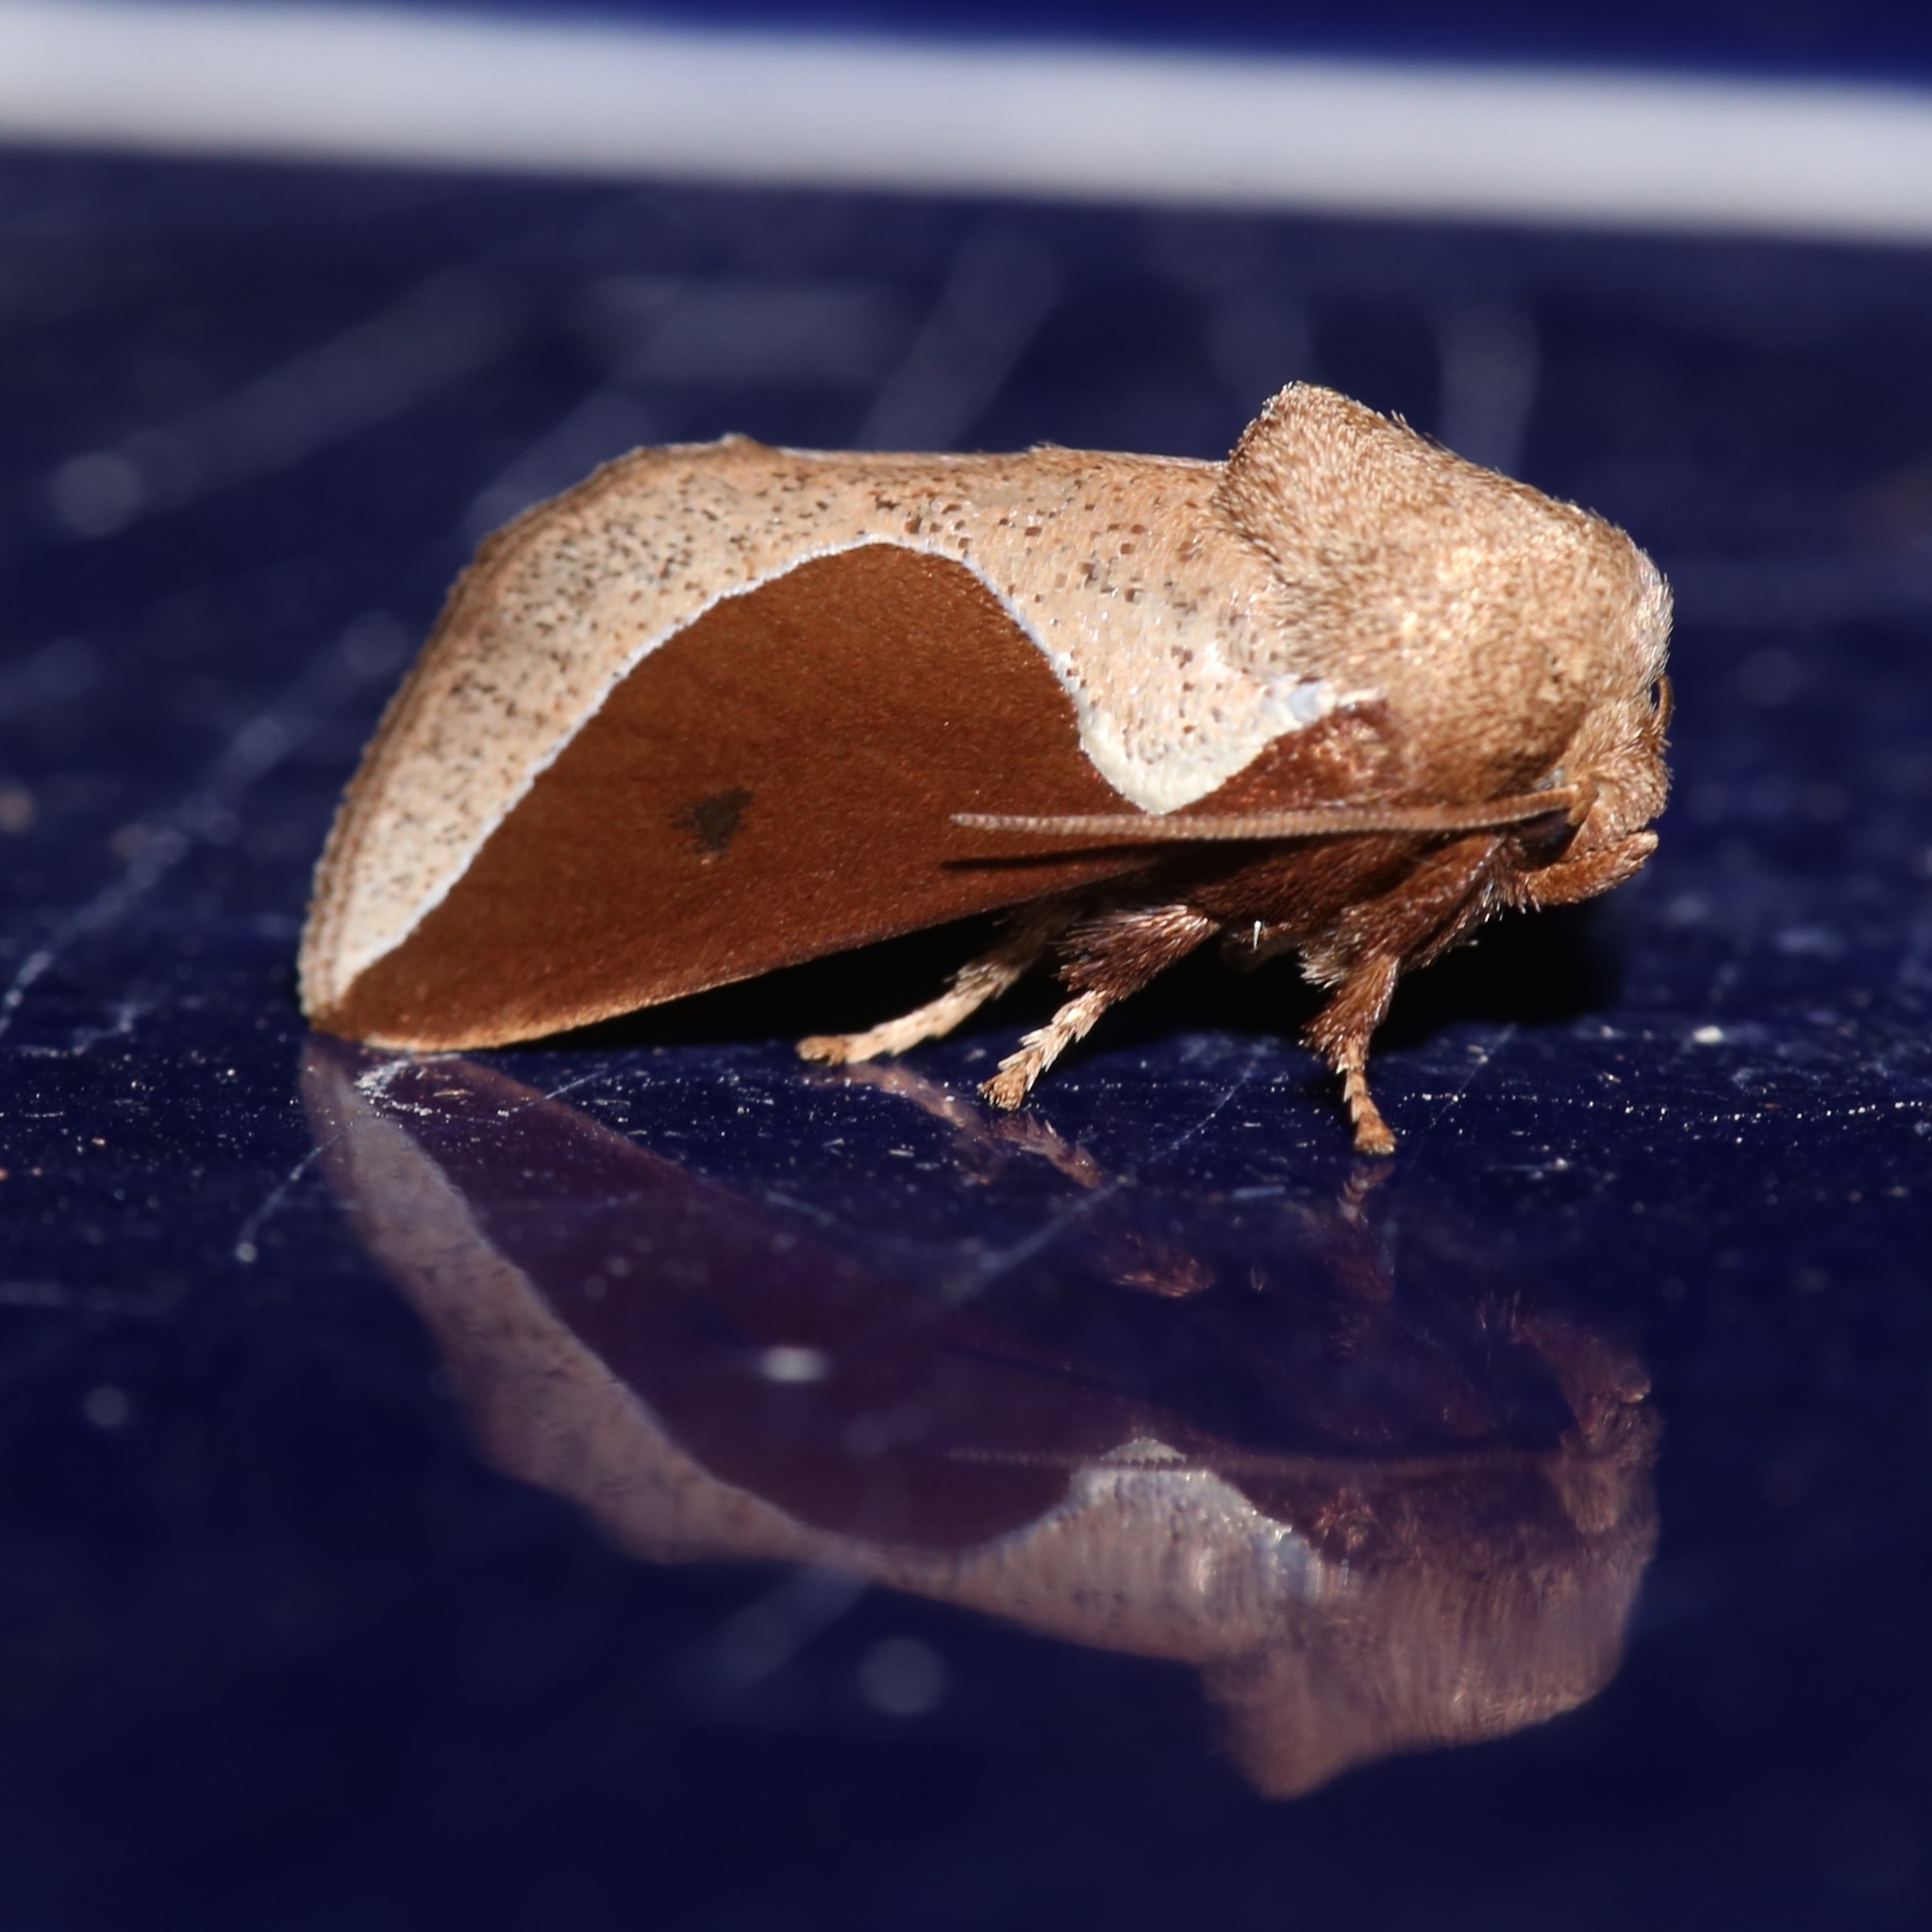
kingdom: Animalia
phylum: Arthropoda
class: Insecta
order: Lepidoptera
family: Limacodidae
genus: Prolimacodes
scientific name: Prolimacodes badia
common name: Skiff moth
